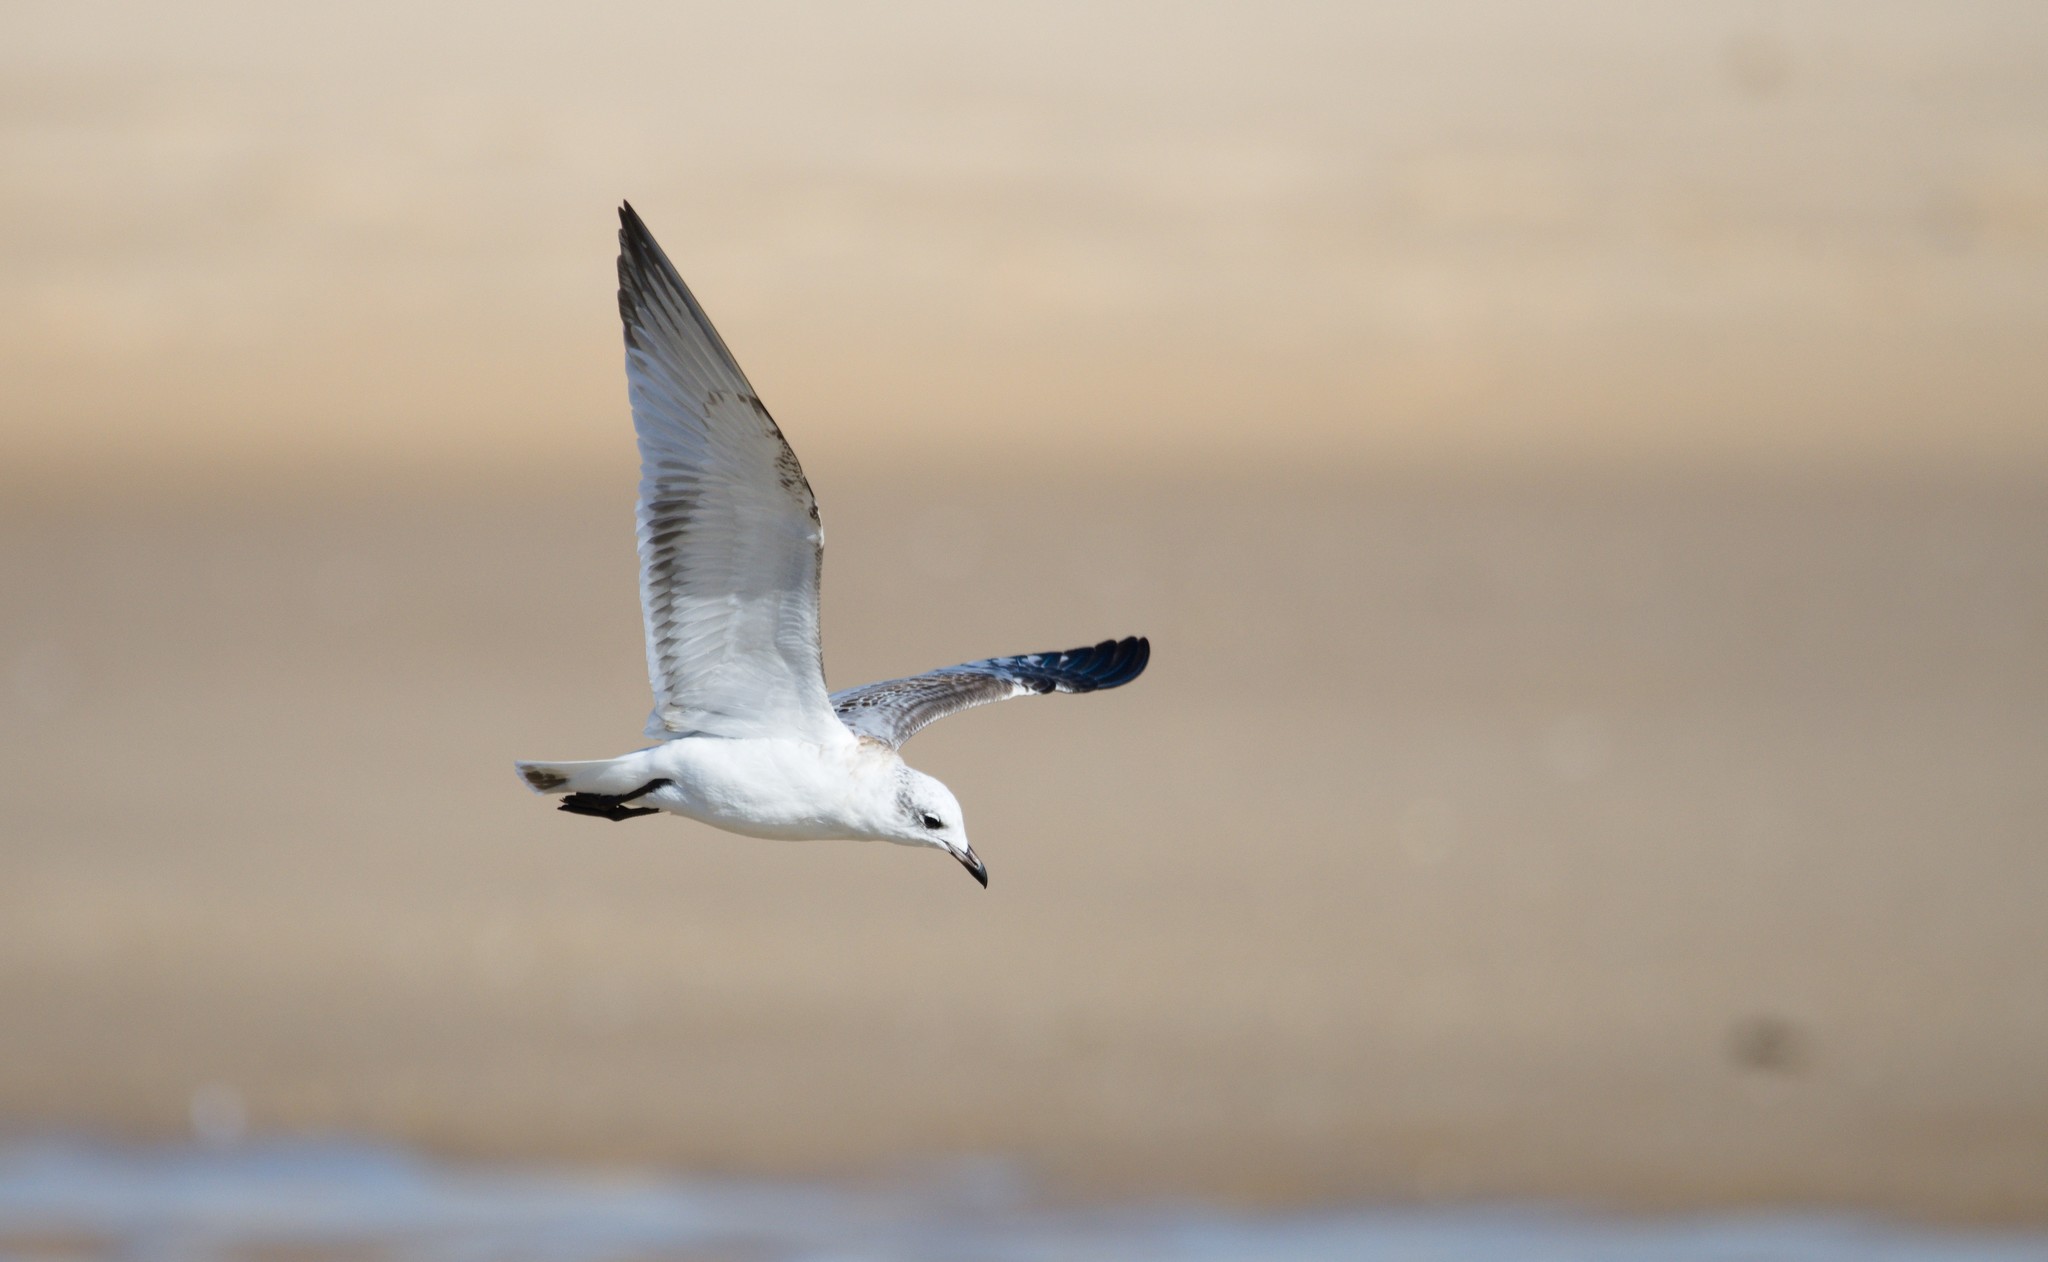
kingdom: Animalia
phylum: Chordata
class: Aves
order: Charadriiformes
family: Laridae
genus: Ichthyaetus
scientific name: Ichthyaetus melanocephalus
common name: Mediterranean gull
